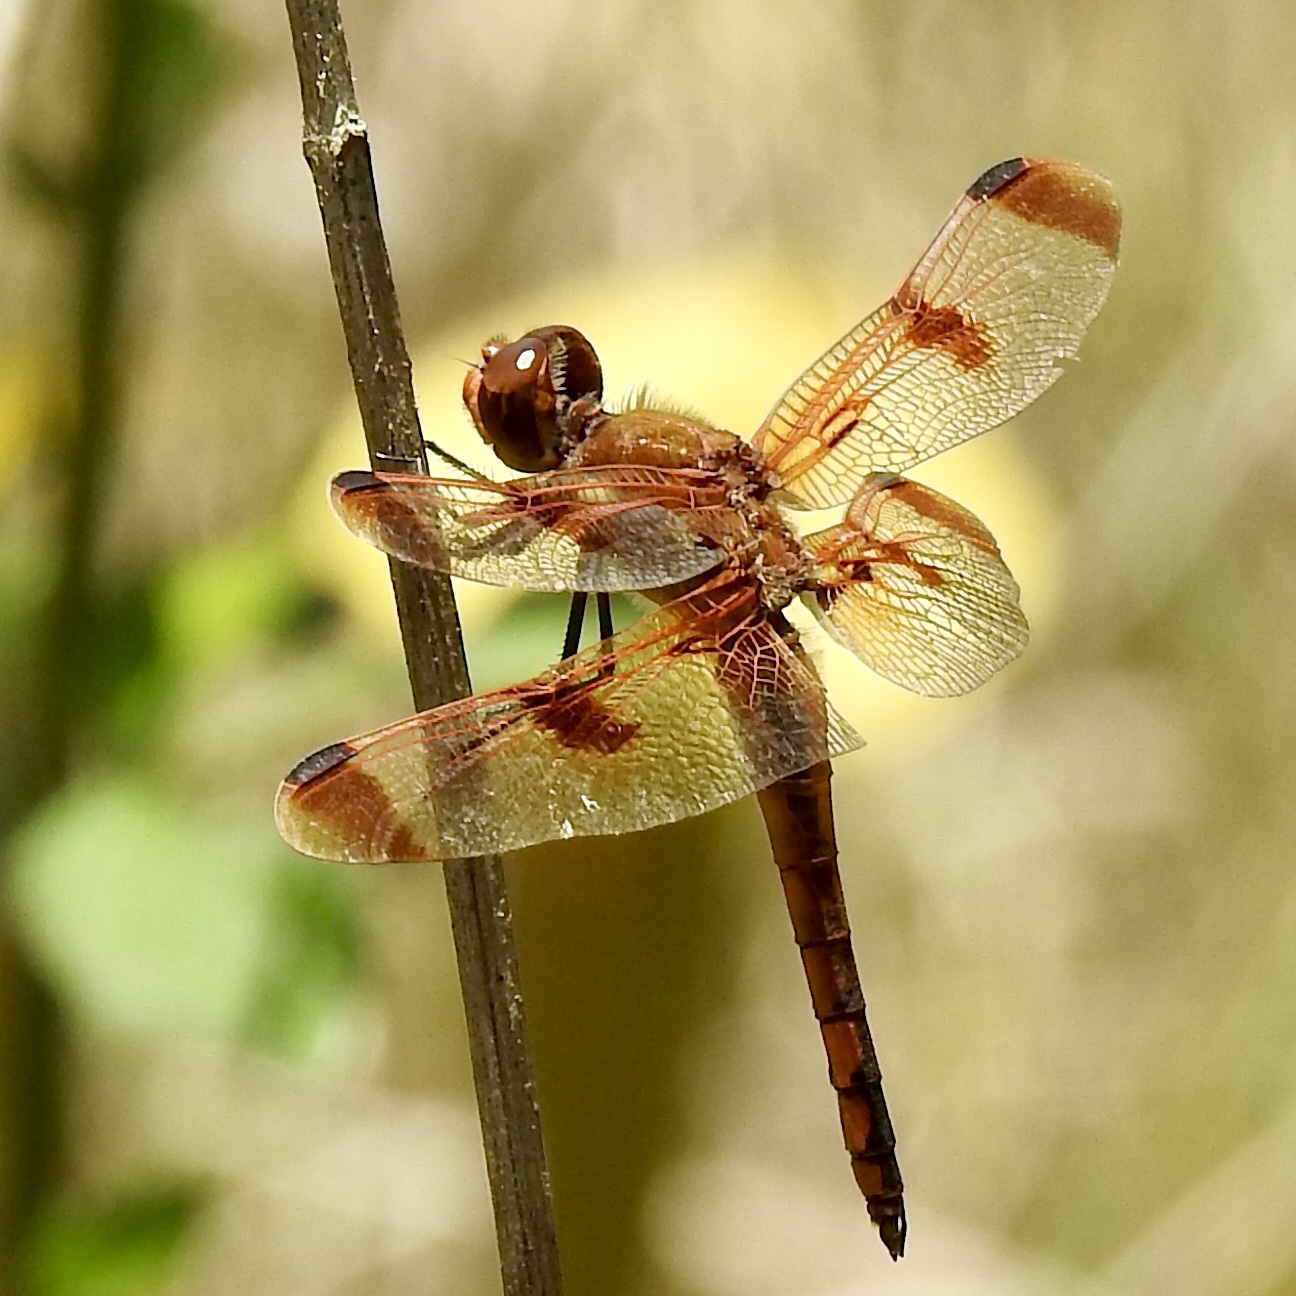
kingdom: Animalia
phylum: Arthropoda
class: Insecta
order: Odonata
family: Libellulidae
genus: Libellula
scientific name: Libellula semifasciata
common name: Painted skimmer
